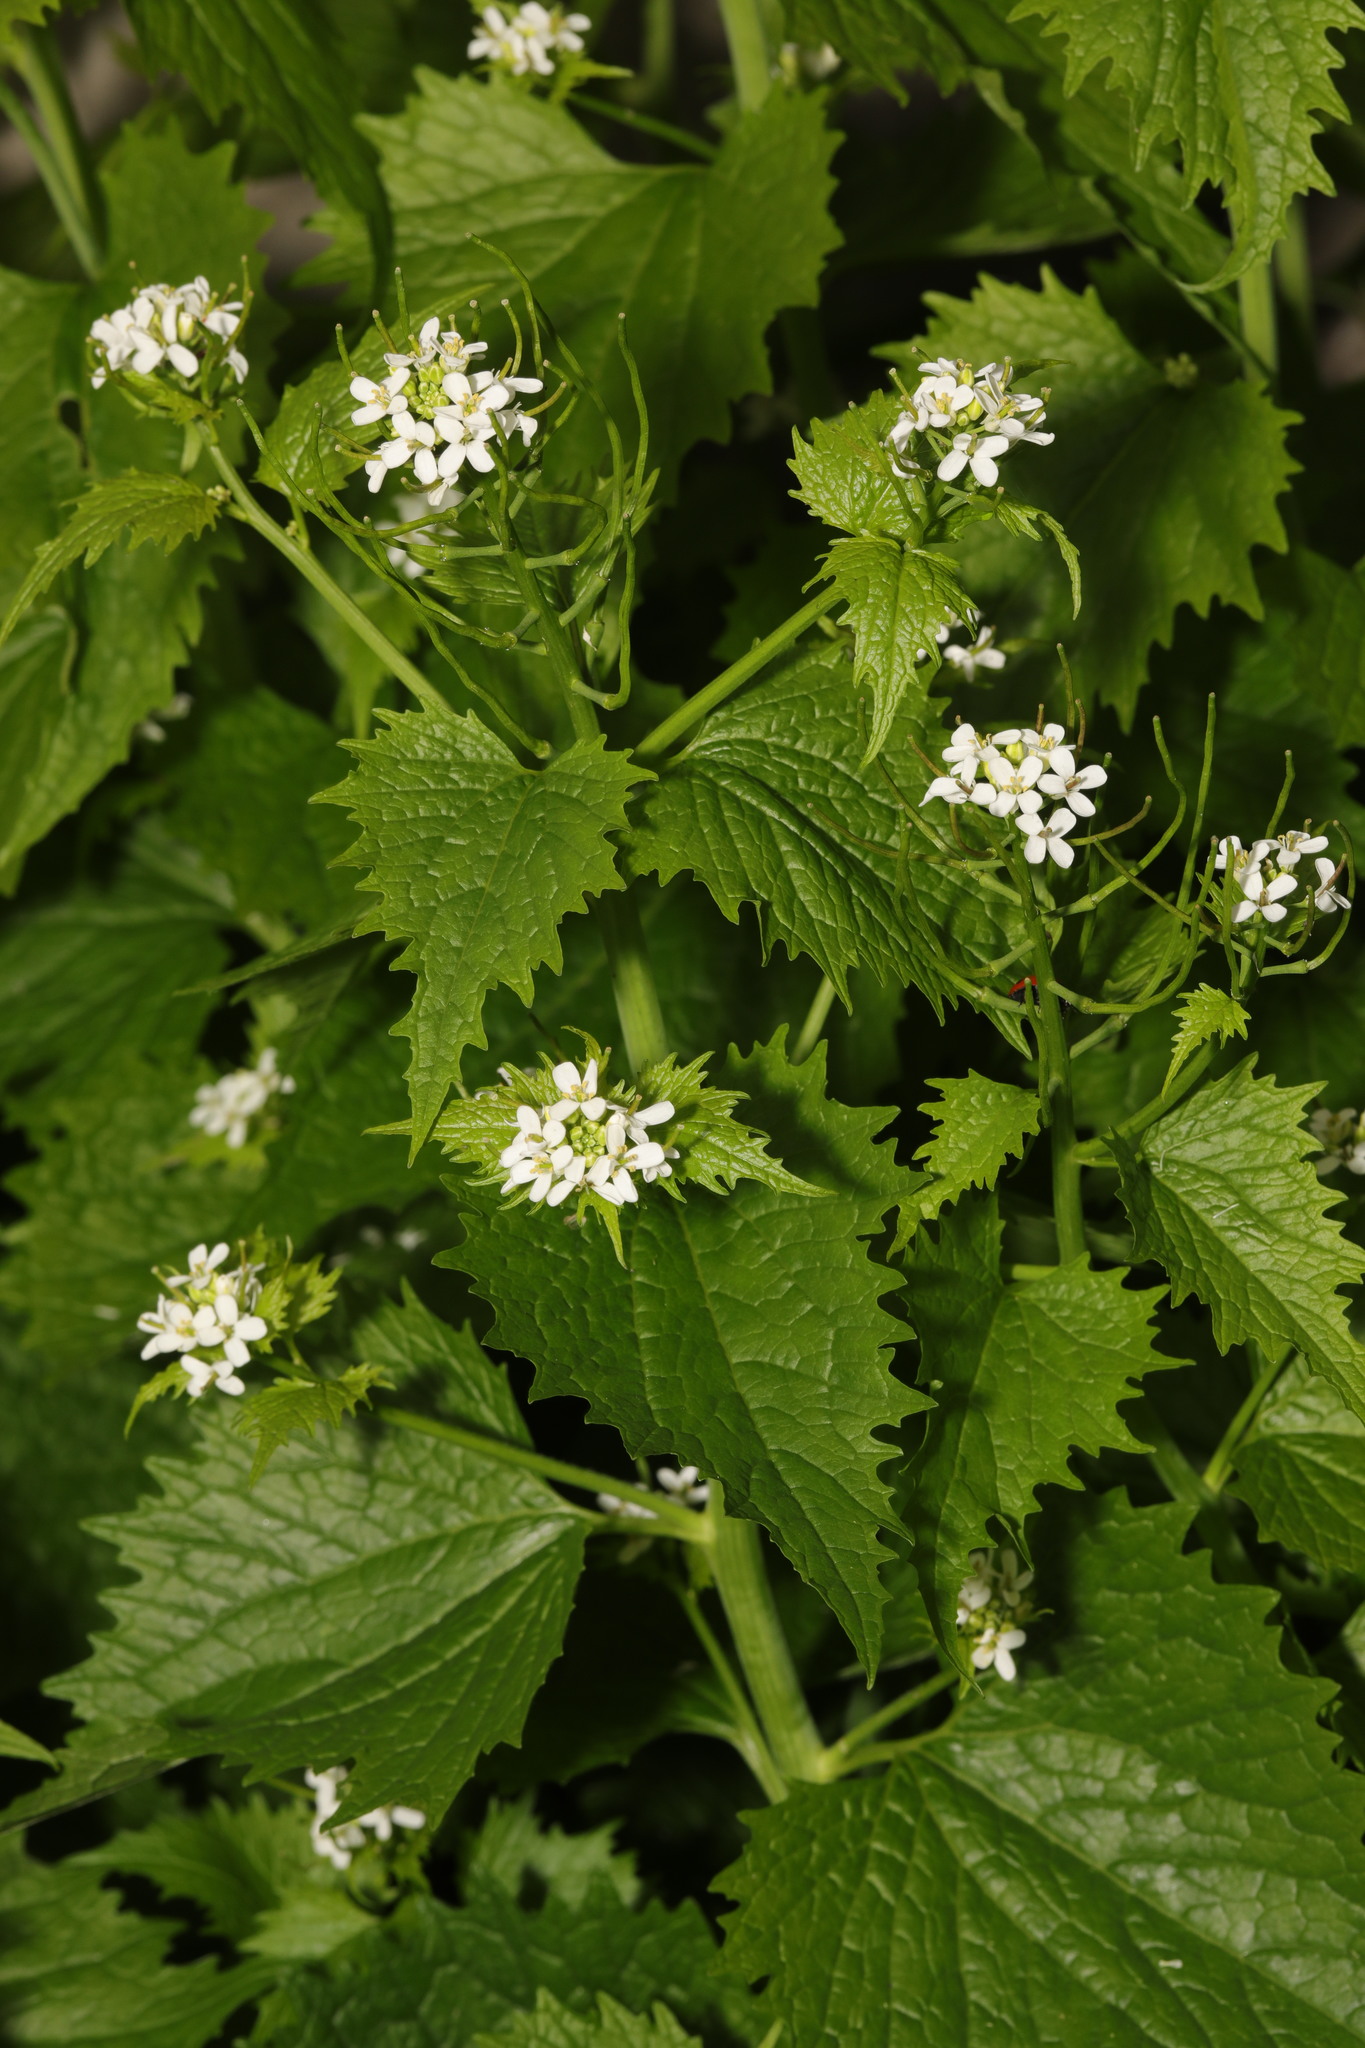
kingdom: Plantae
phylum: Tracheophyta
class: Magnoliopsida
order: Brassicales
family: Brassicaceae
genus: Alliaria
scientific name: Alliaria petiolata
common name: Garlic mustard
